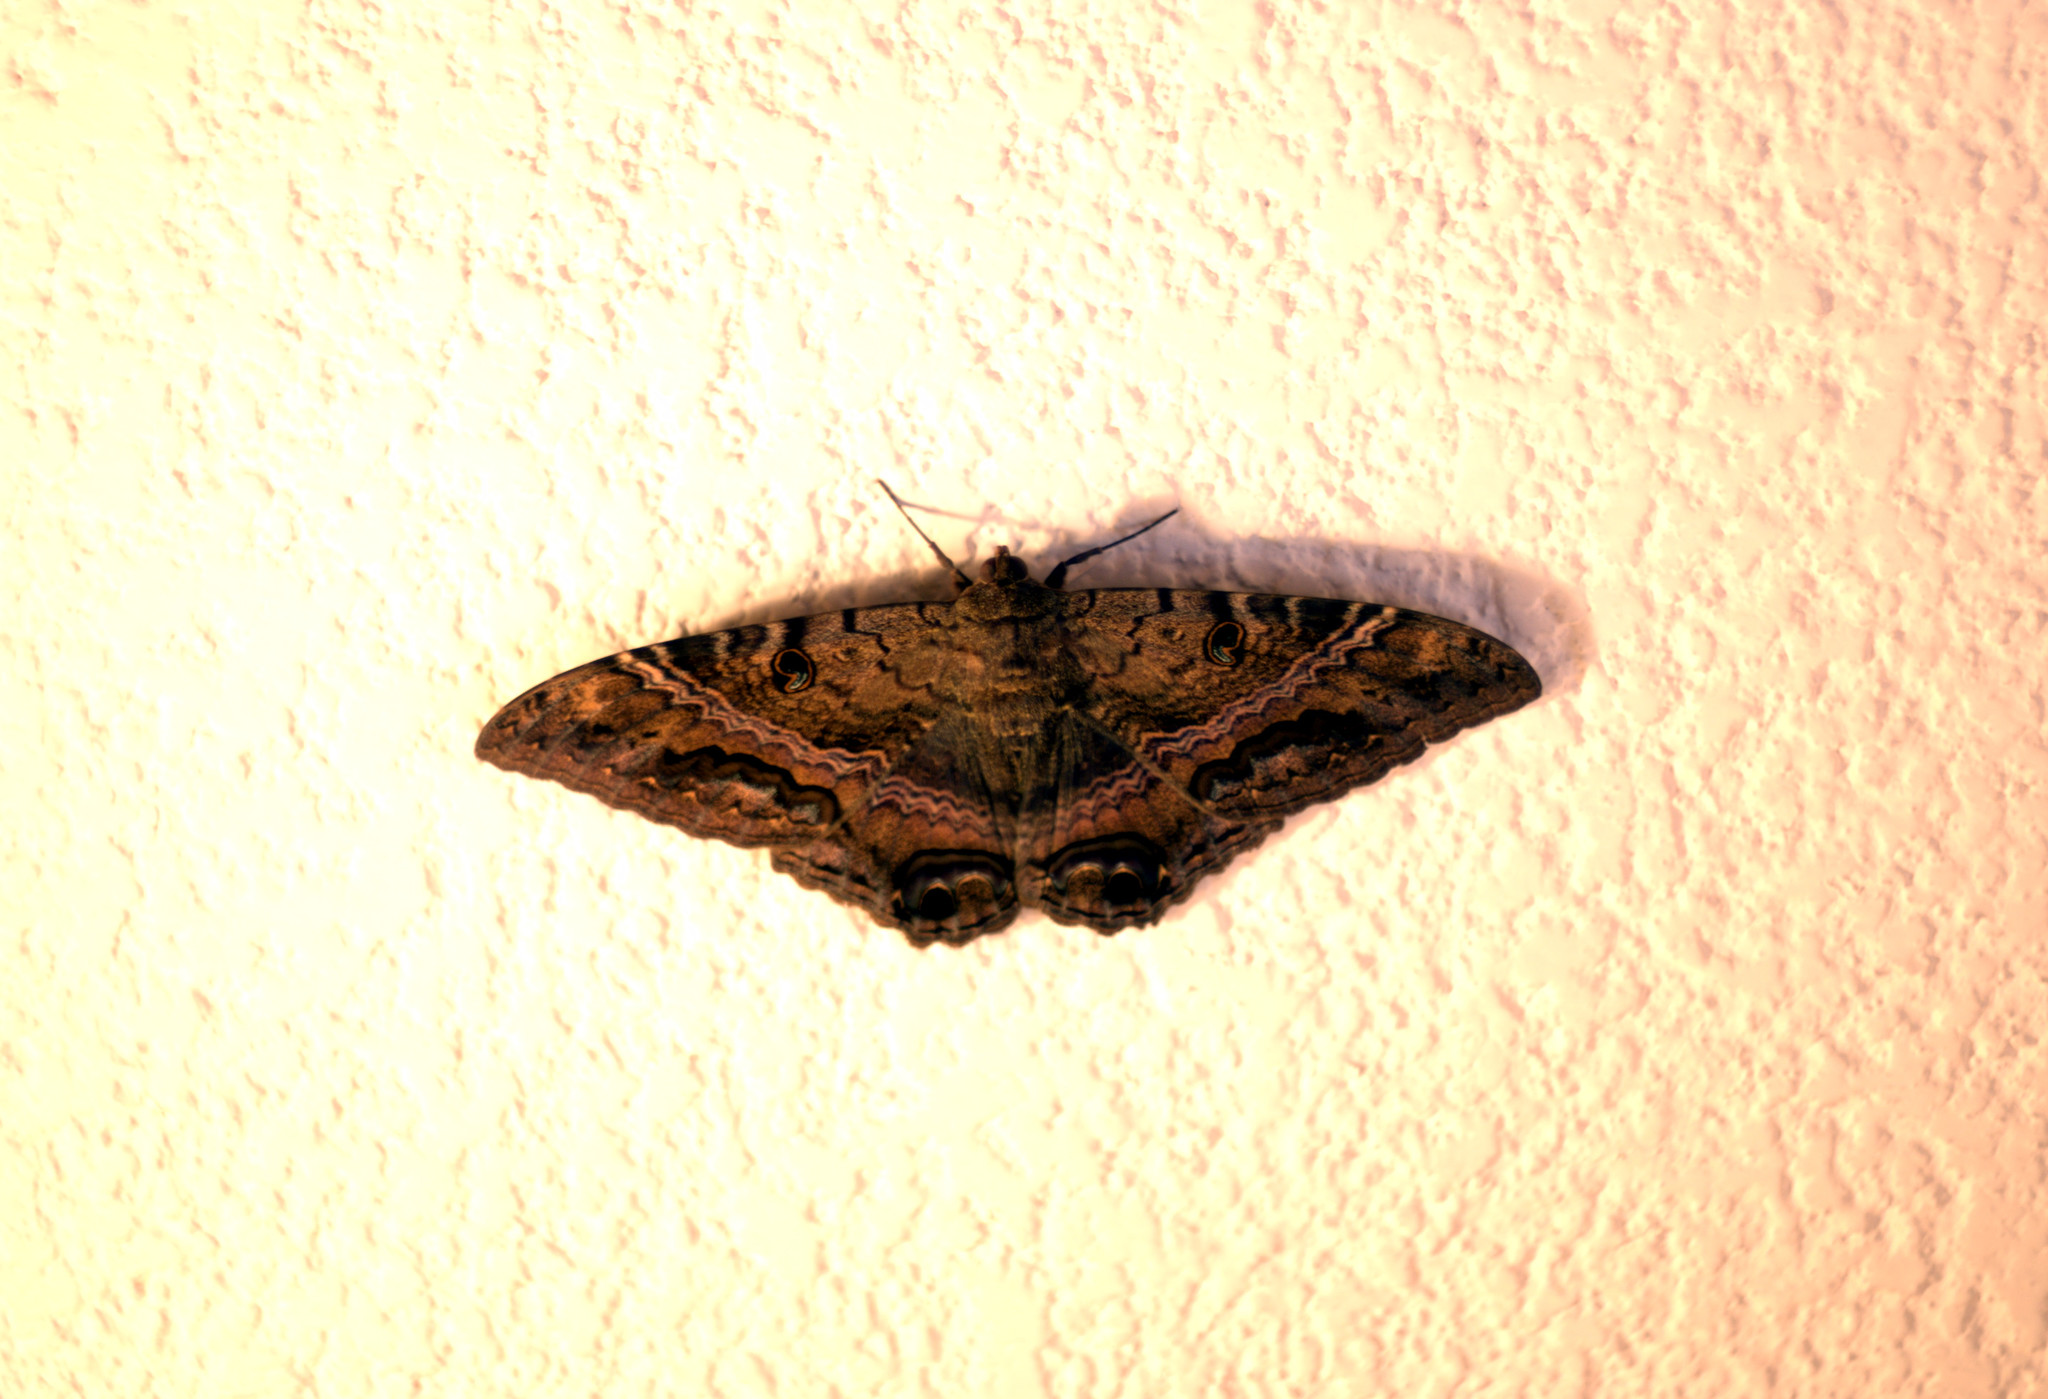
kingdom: Animalia
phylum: Arthropoda
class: Insecta
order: Lepidoptera
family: Erebidae
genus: Ascalapha
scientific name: Ascalapha odorata
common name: Black witch
